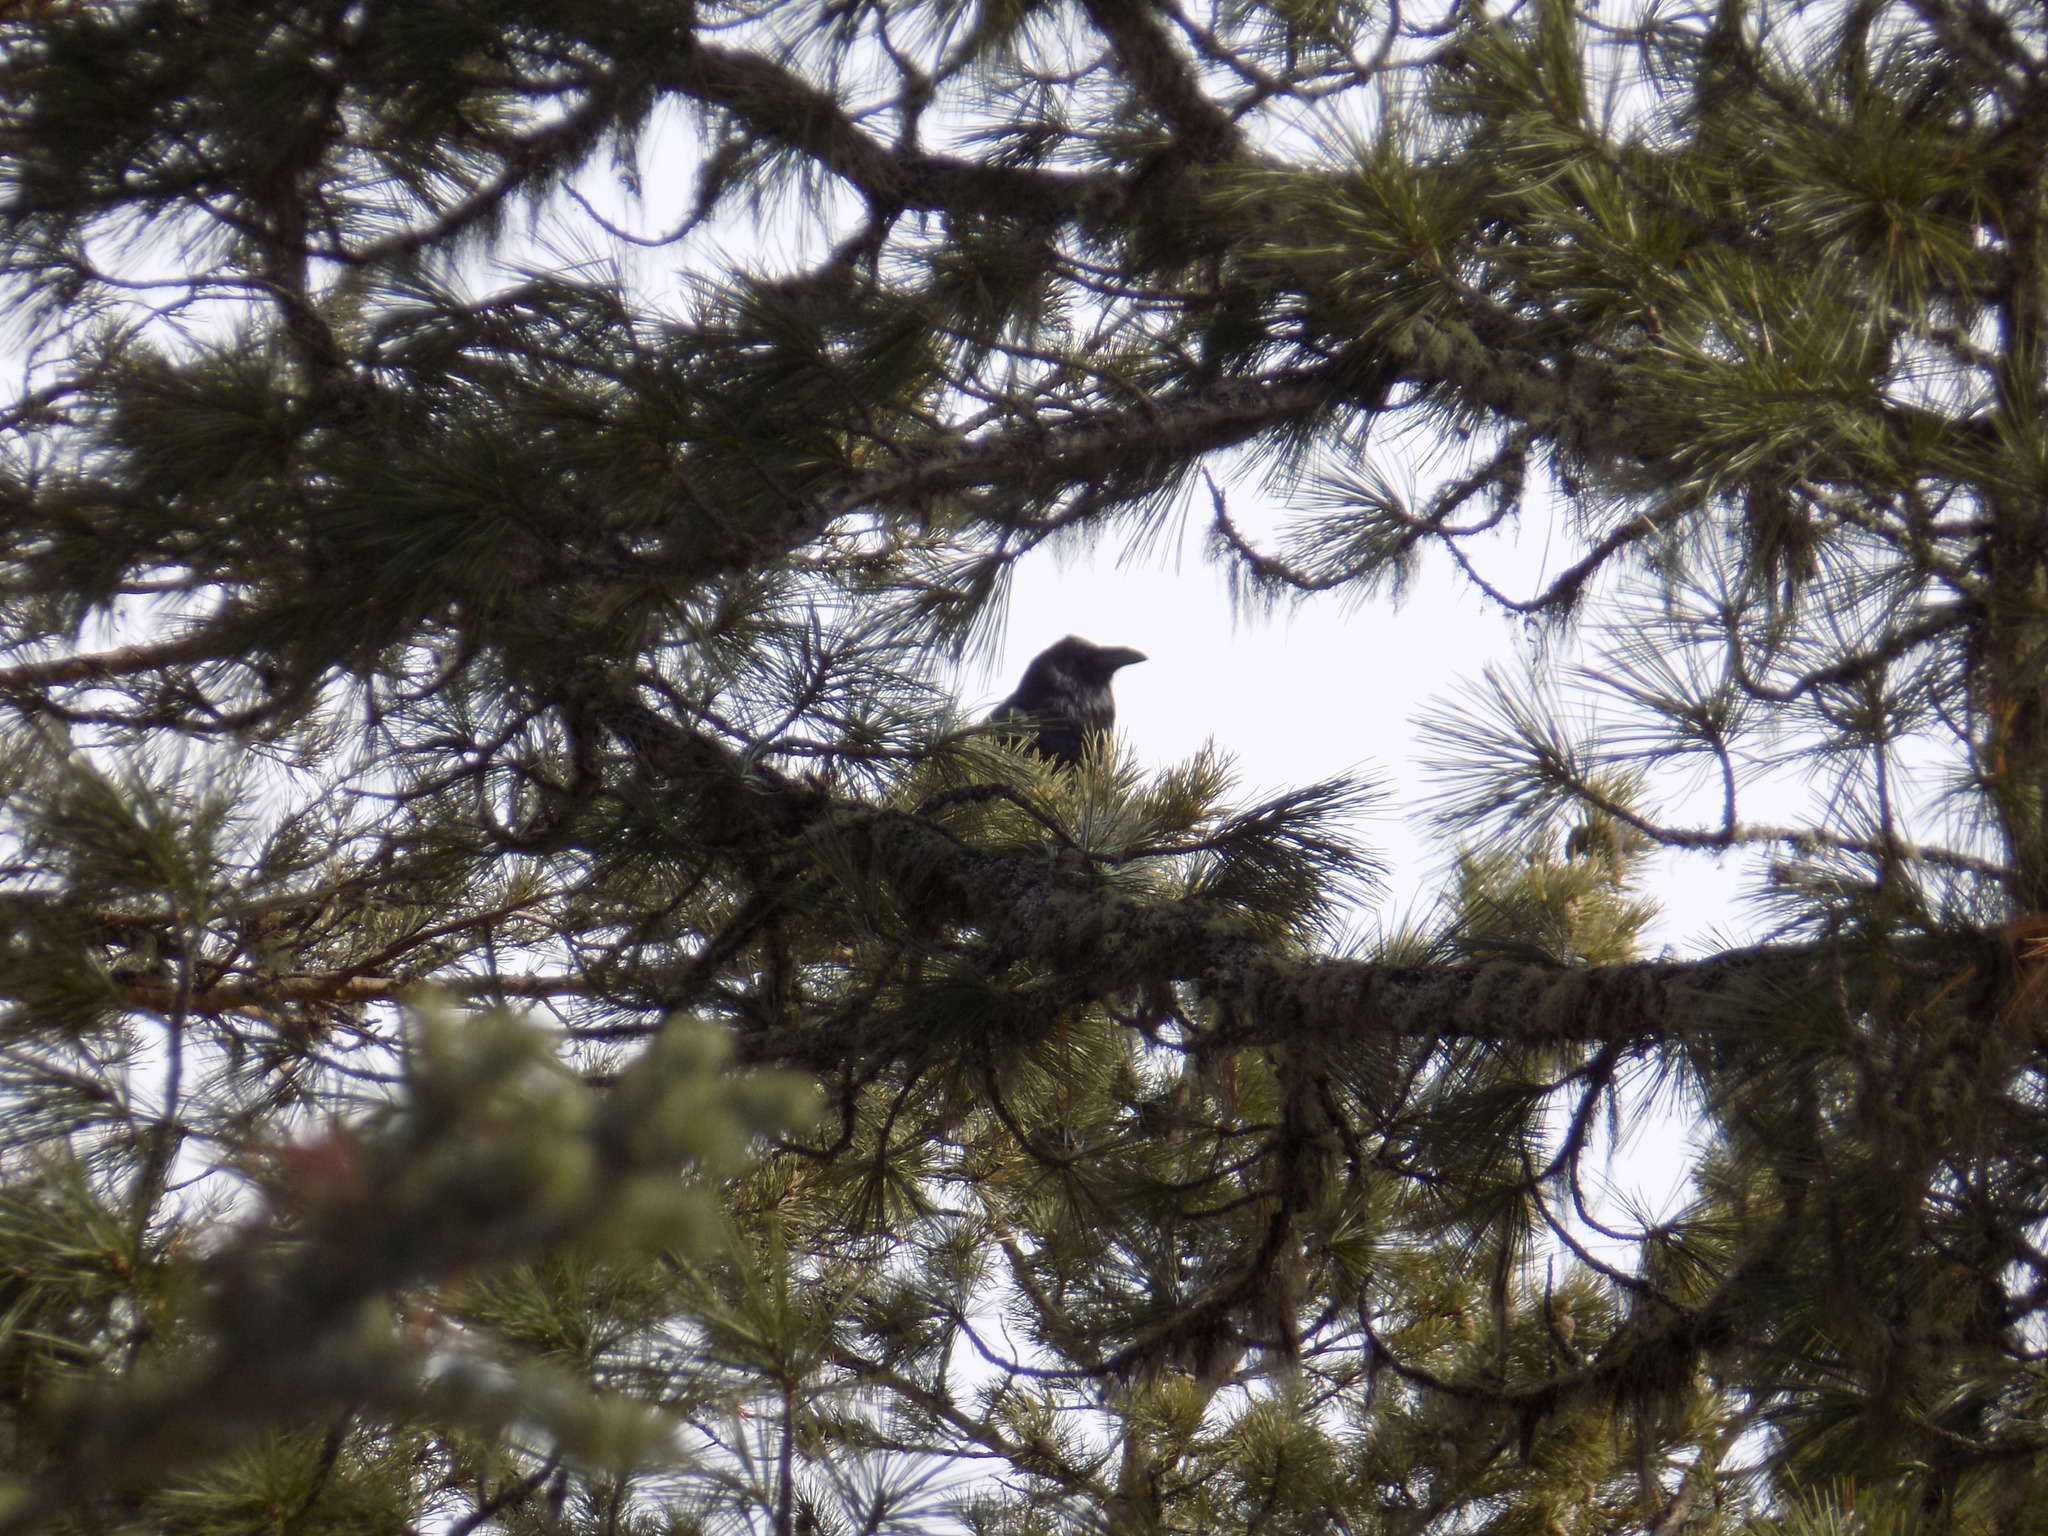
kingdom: Animalia
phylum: Chordata
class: Aves
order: Passeriformes
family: Corvidae
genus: Corvus
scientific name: Corvus corax
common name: Common raven
